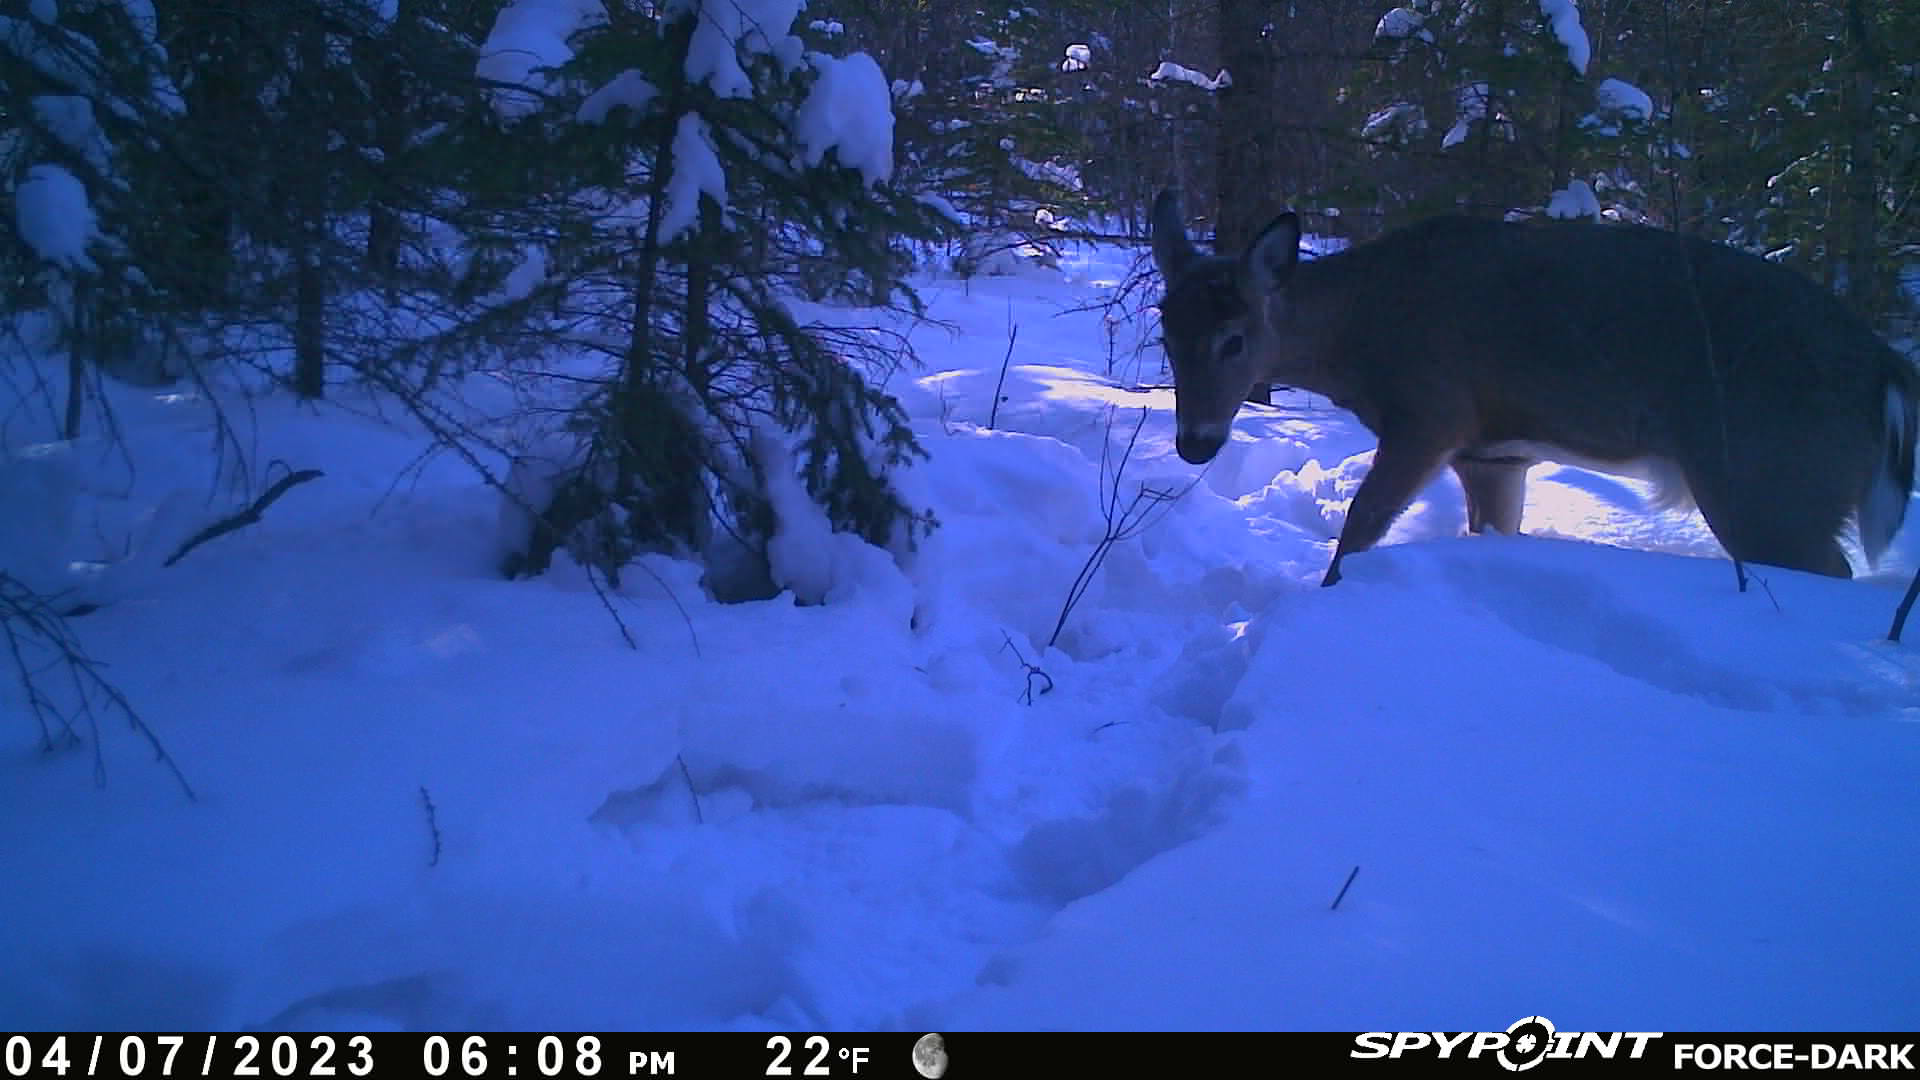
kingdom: Animalia
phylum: Chordata
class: Mammalia
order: Artiodactyla
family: Cervidae
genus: Odocoileus
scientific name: Odocoileus virginianus
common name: White-tailed deer
